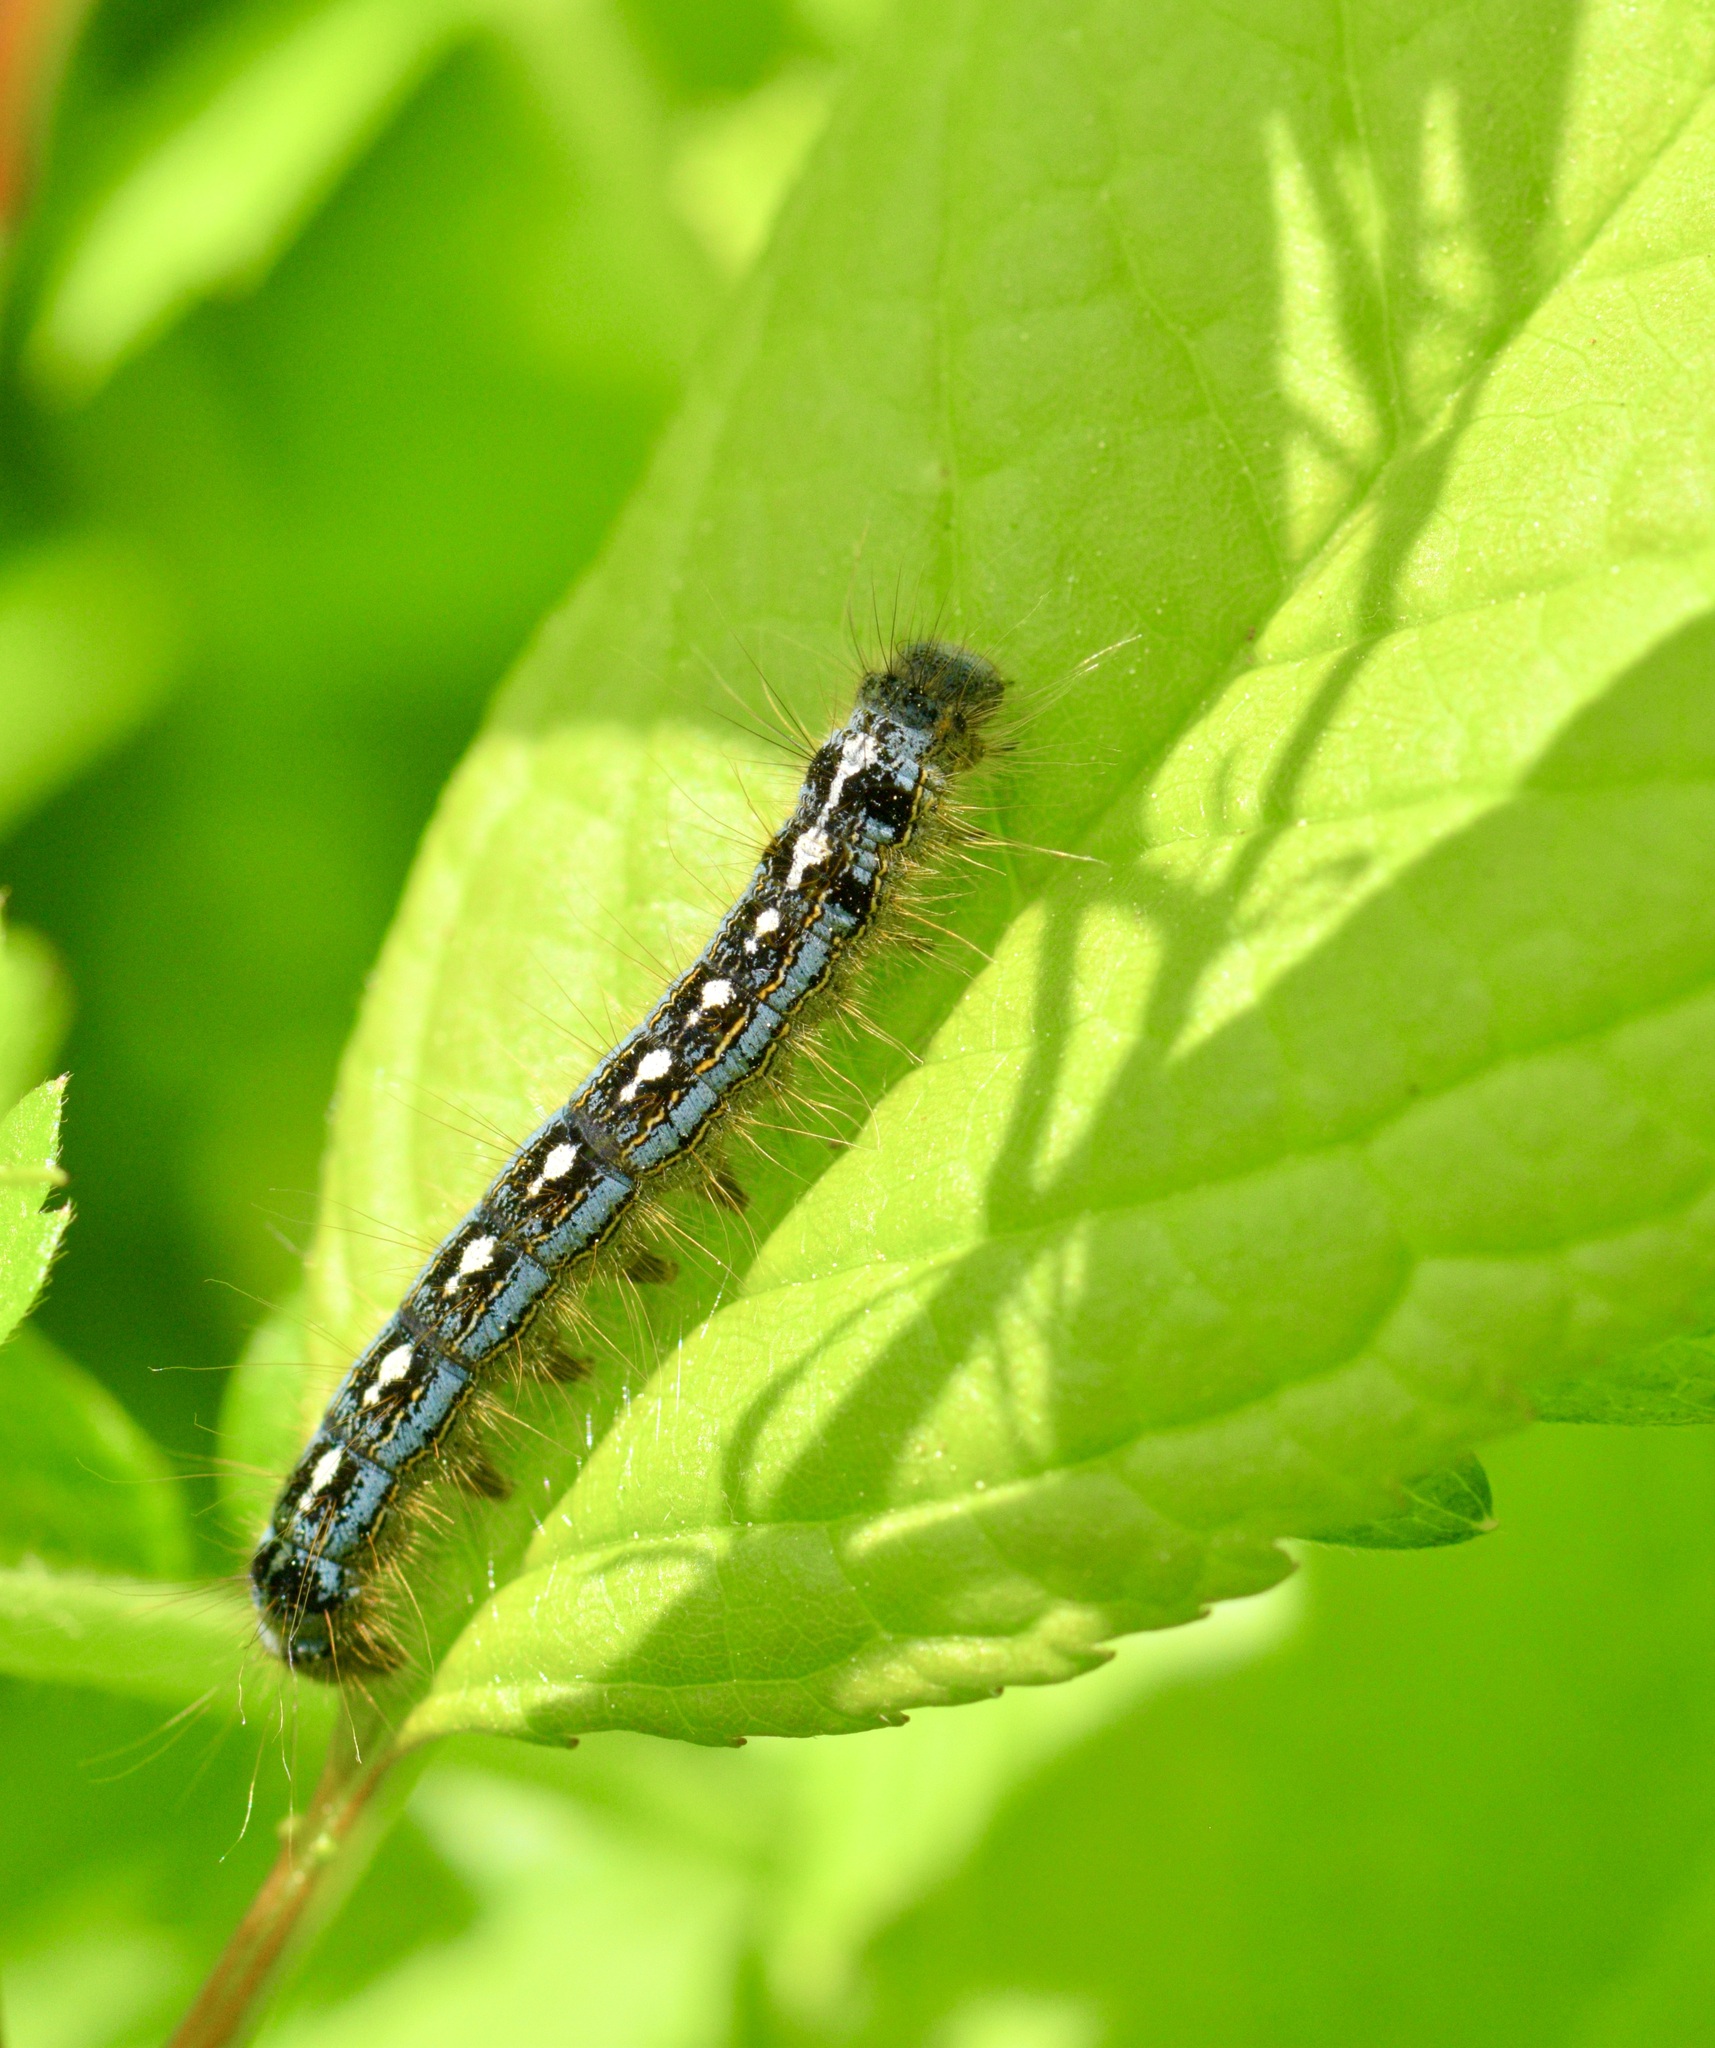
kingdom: Animalia
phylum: Arthropoda
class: Insecta
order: Lepidoptera
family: Lasiocampidae
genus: Malacosoma
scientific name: Malacosoma disstria
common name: Forest tent caterpillar
